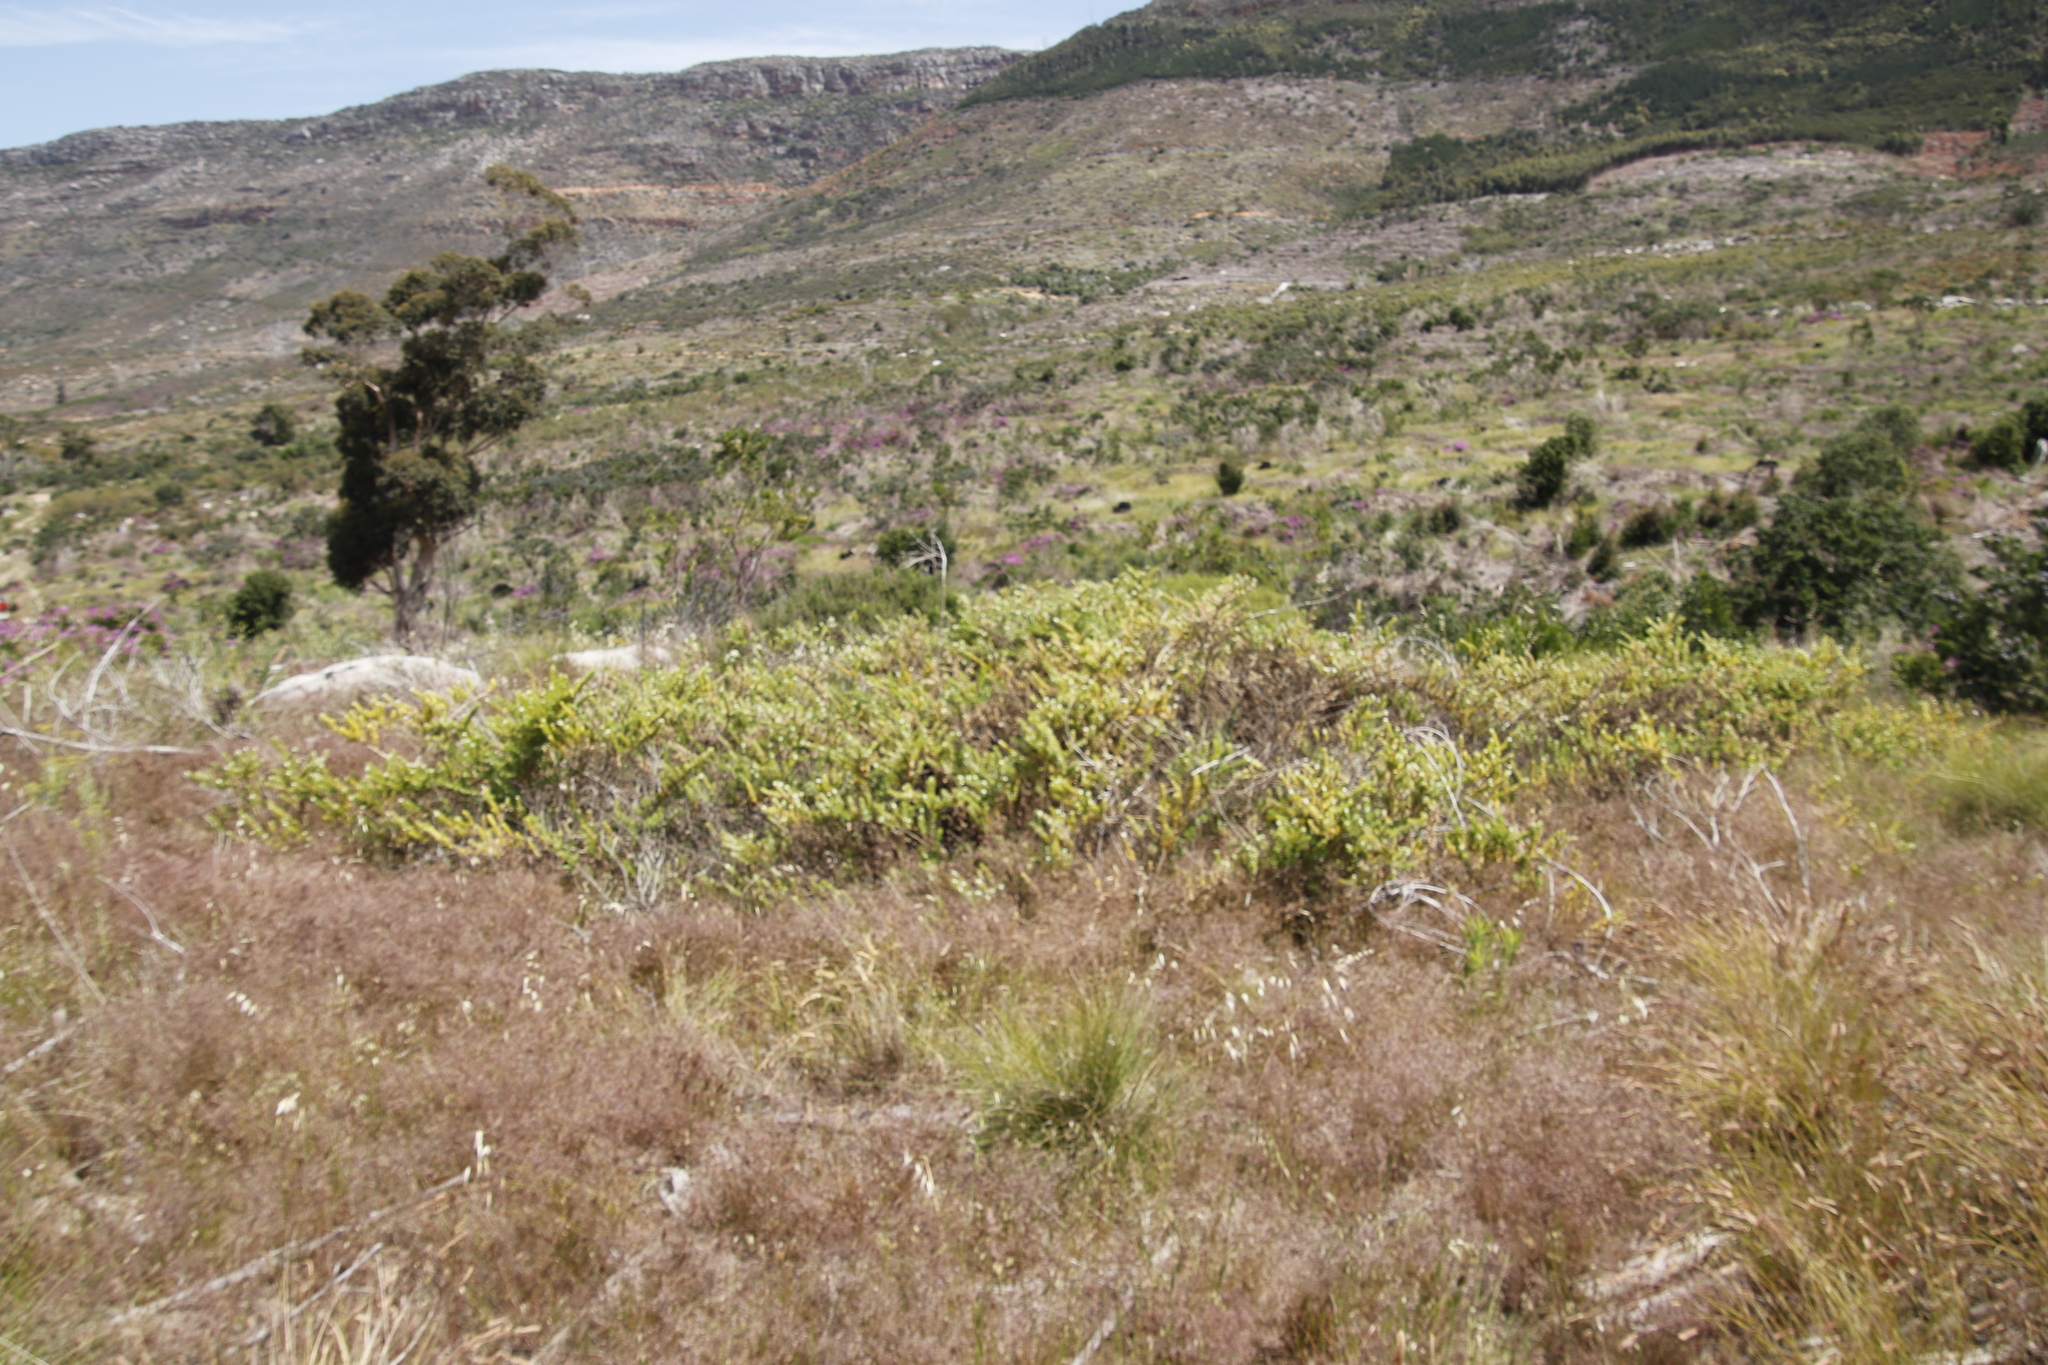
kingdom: Plantae
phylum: Tracheophyta
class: Magnoliopsida
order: Lamiales
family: Scrophulariaceae
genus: Oftia
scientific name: Oftia africana
